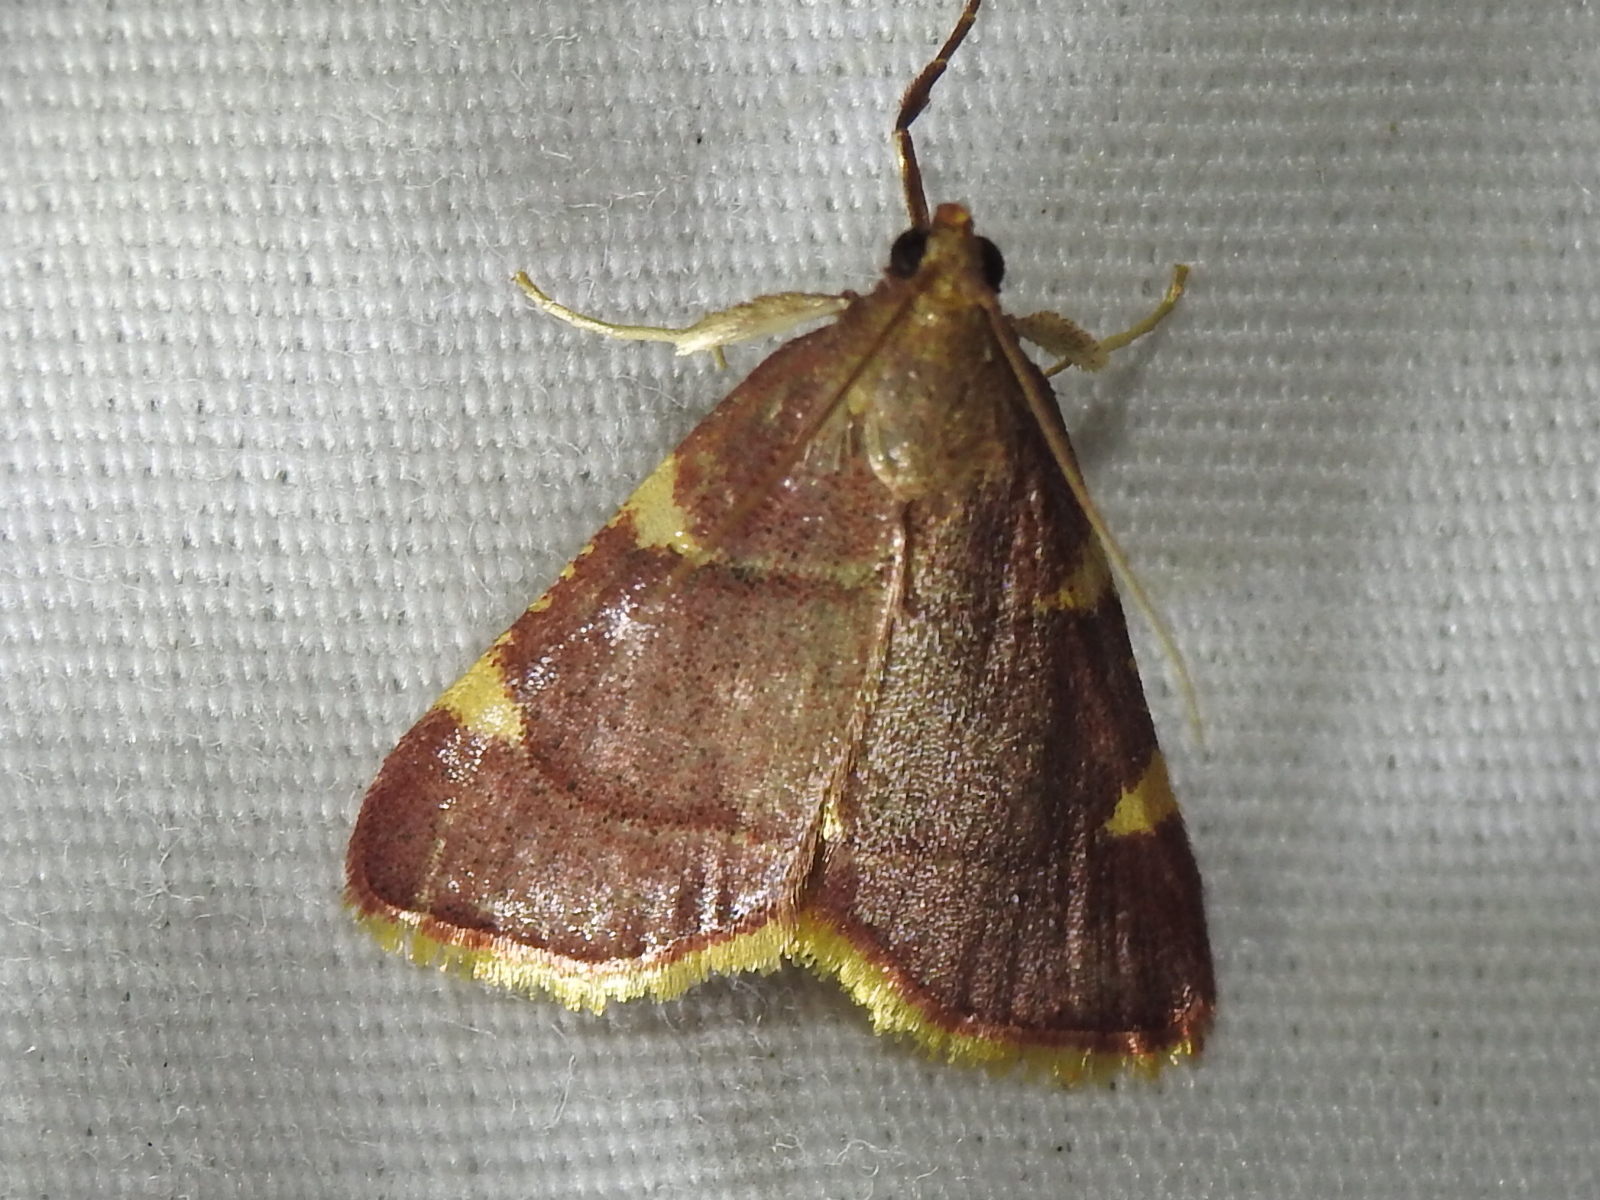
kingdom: Animalia
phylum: Arthropoda
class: Insecta
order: Lepidoptera
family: Pyralidae
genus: Hypsopygia
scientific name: Hypsopygia olinalis
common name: Yellow-fringed dolichomia moth
